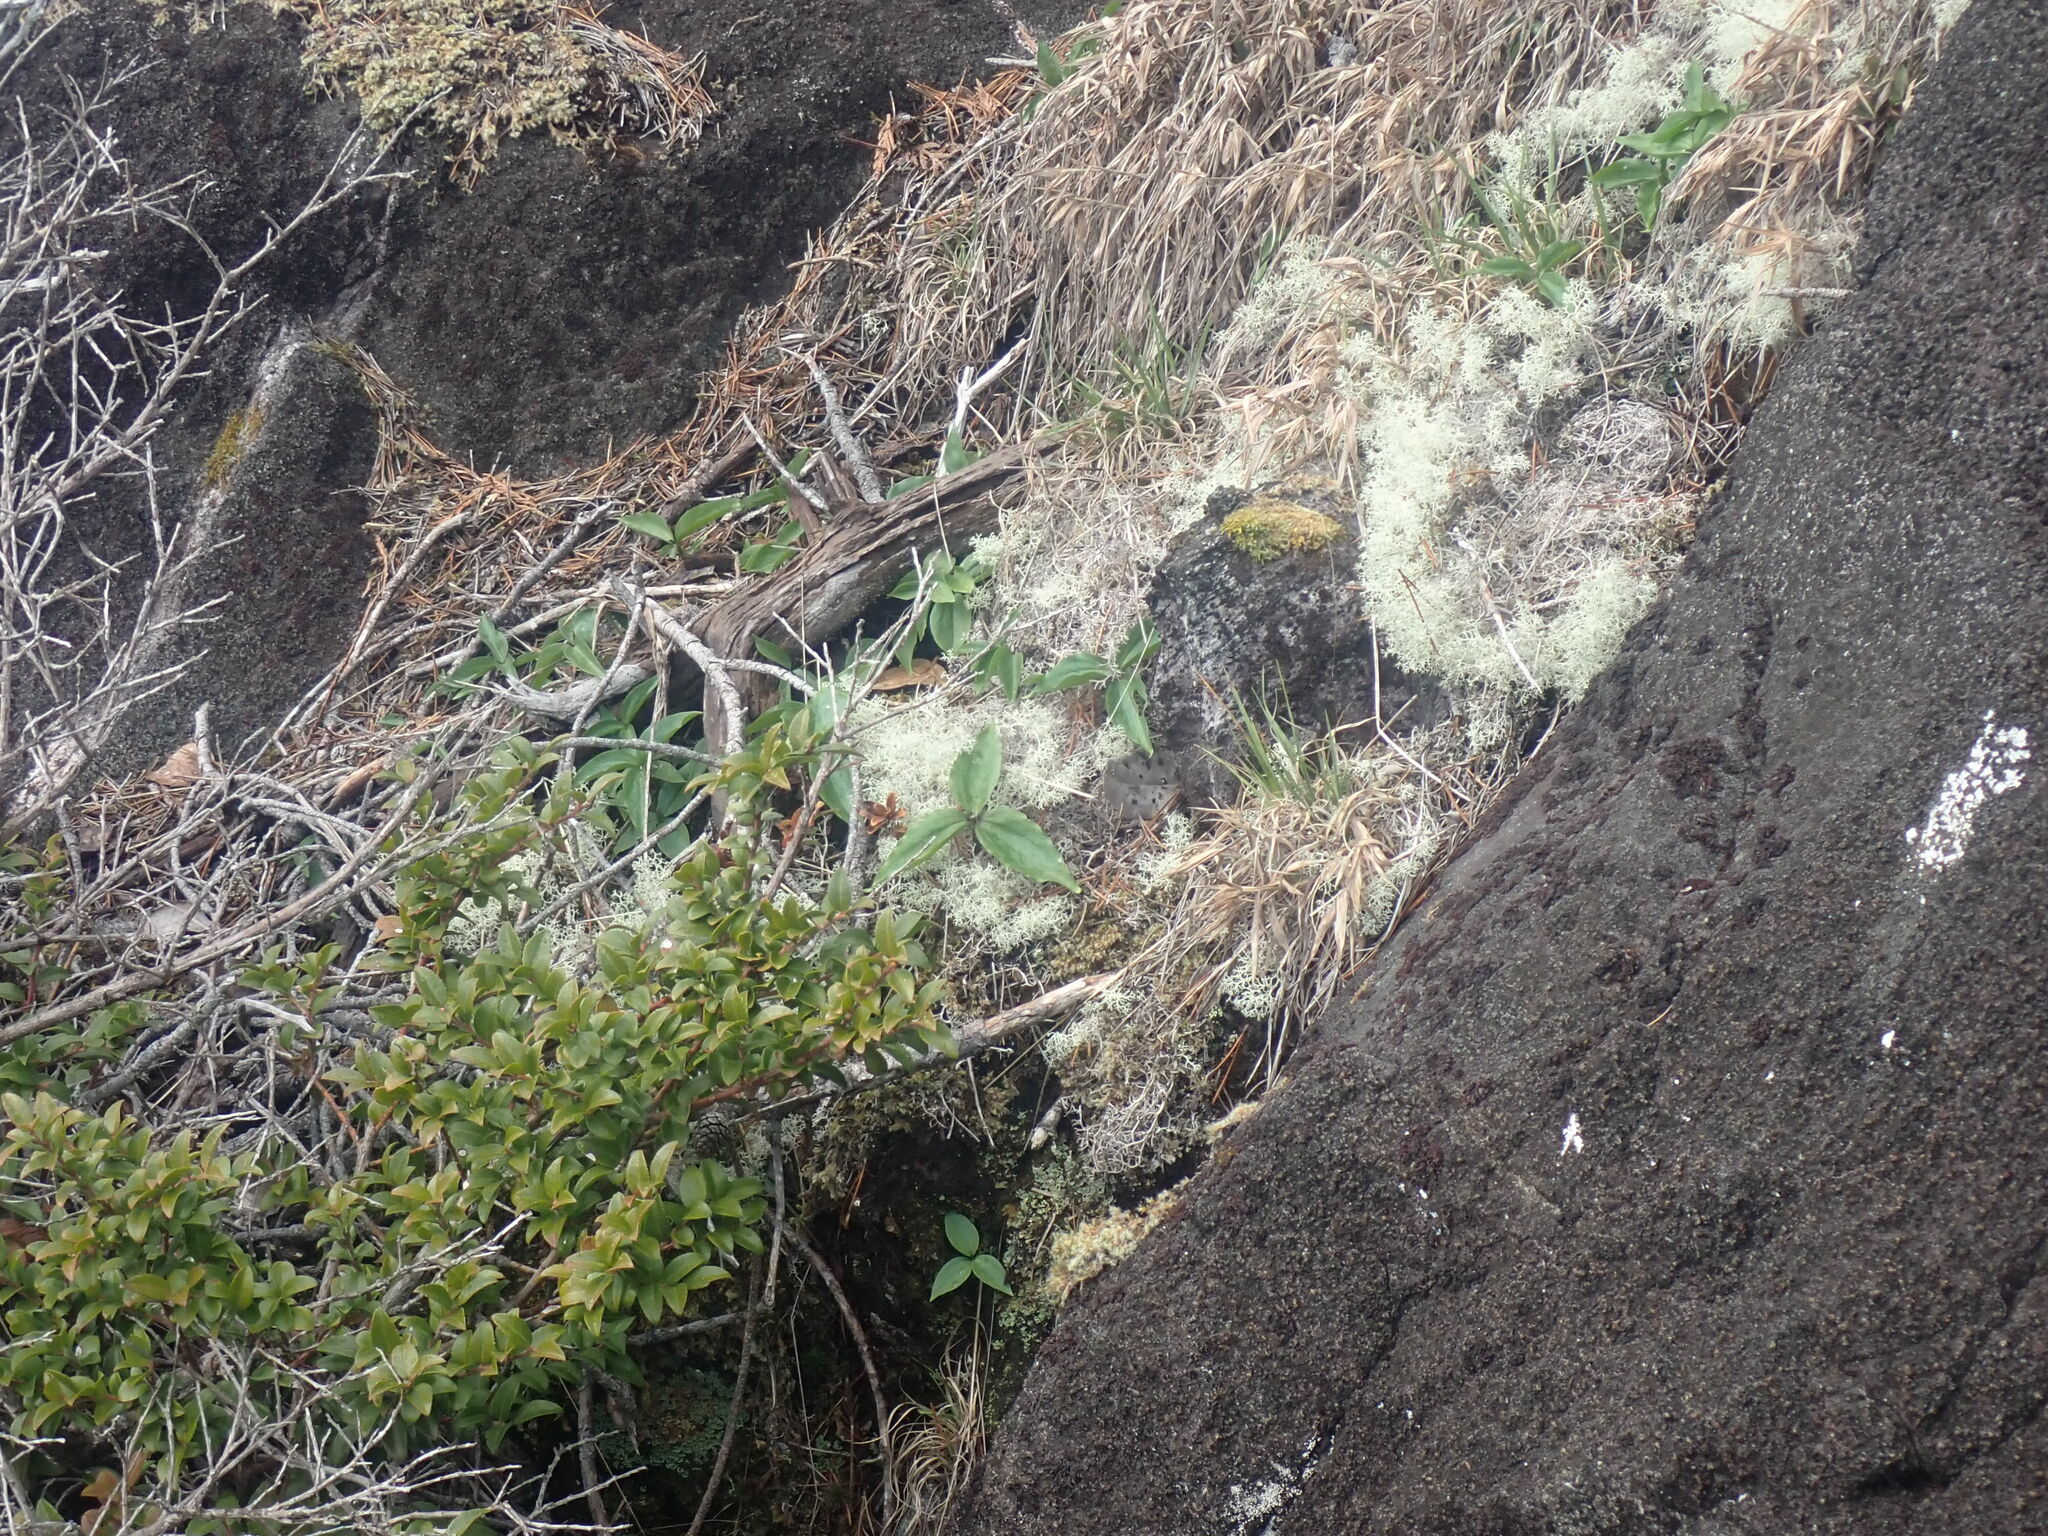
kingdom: Plantae
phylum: Tracheophyta
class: Liliopsida
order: Liliales
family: Melanthiaceae
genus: Trillium
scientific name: Trillium hibbersonii
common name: Hibberson's trillium
